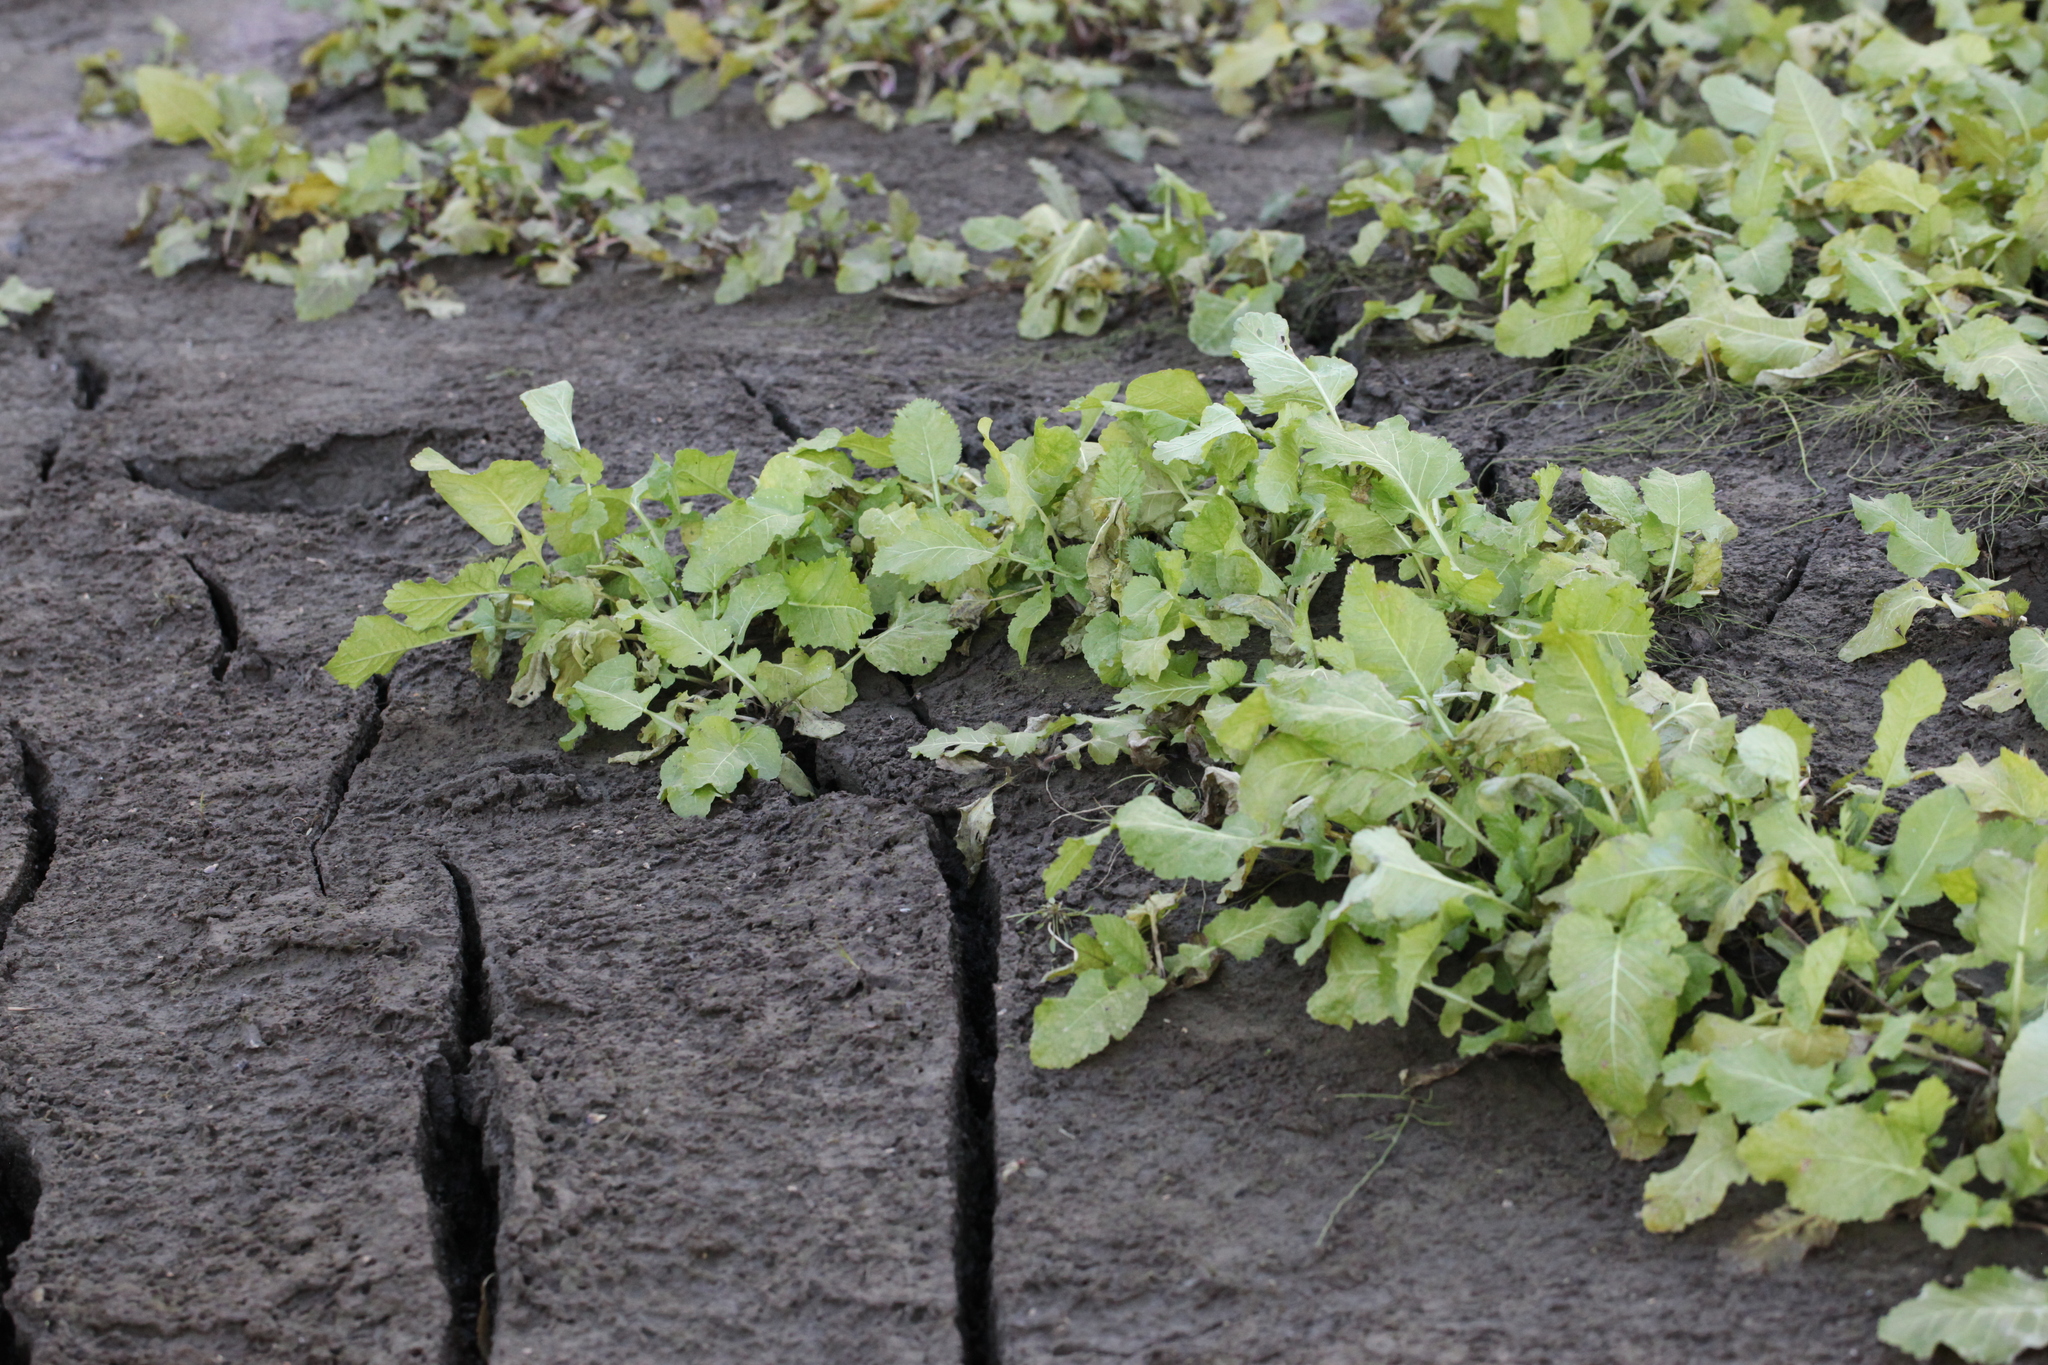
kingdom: Plantae
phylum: Tracheophyta
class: Magnoliopsida
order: Brassicales
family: Brassicaceae
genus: Rorippa
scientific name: Rorippa amphibia
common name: Great yellow-cress
